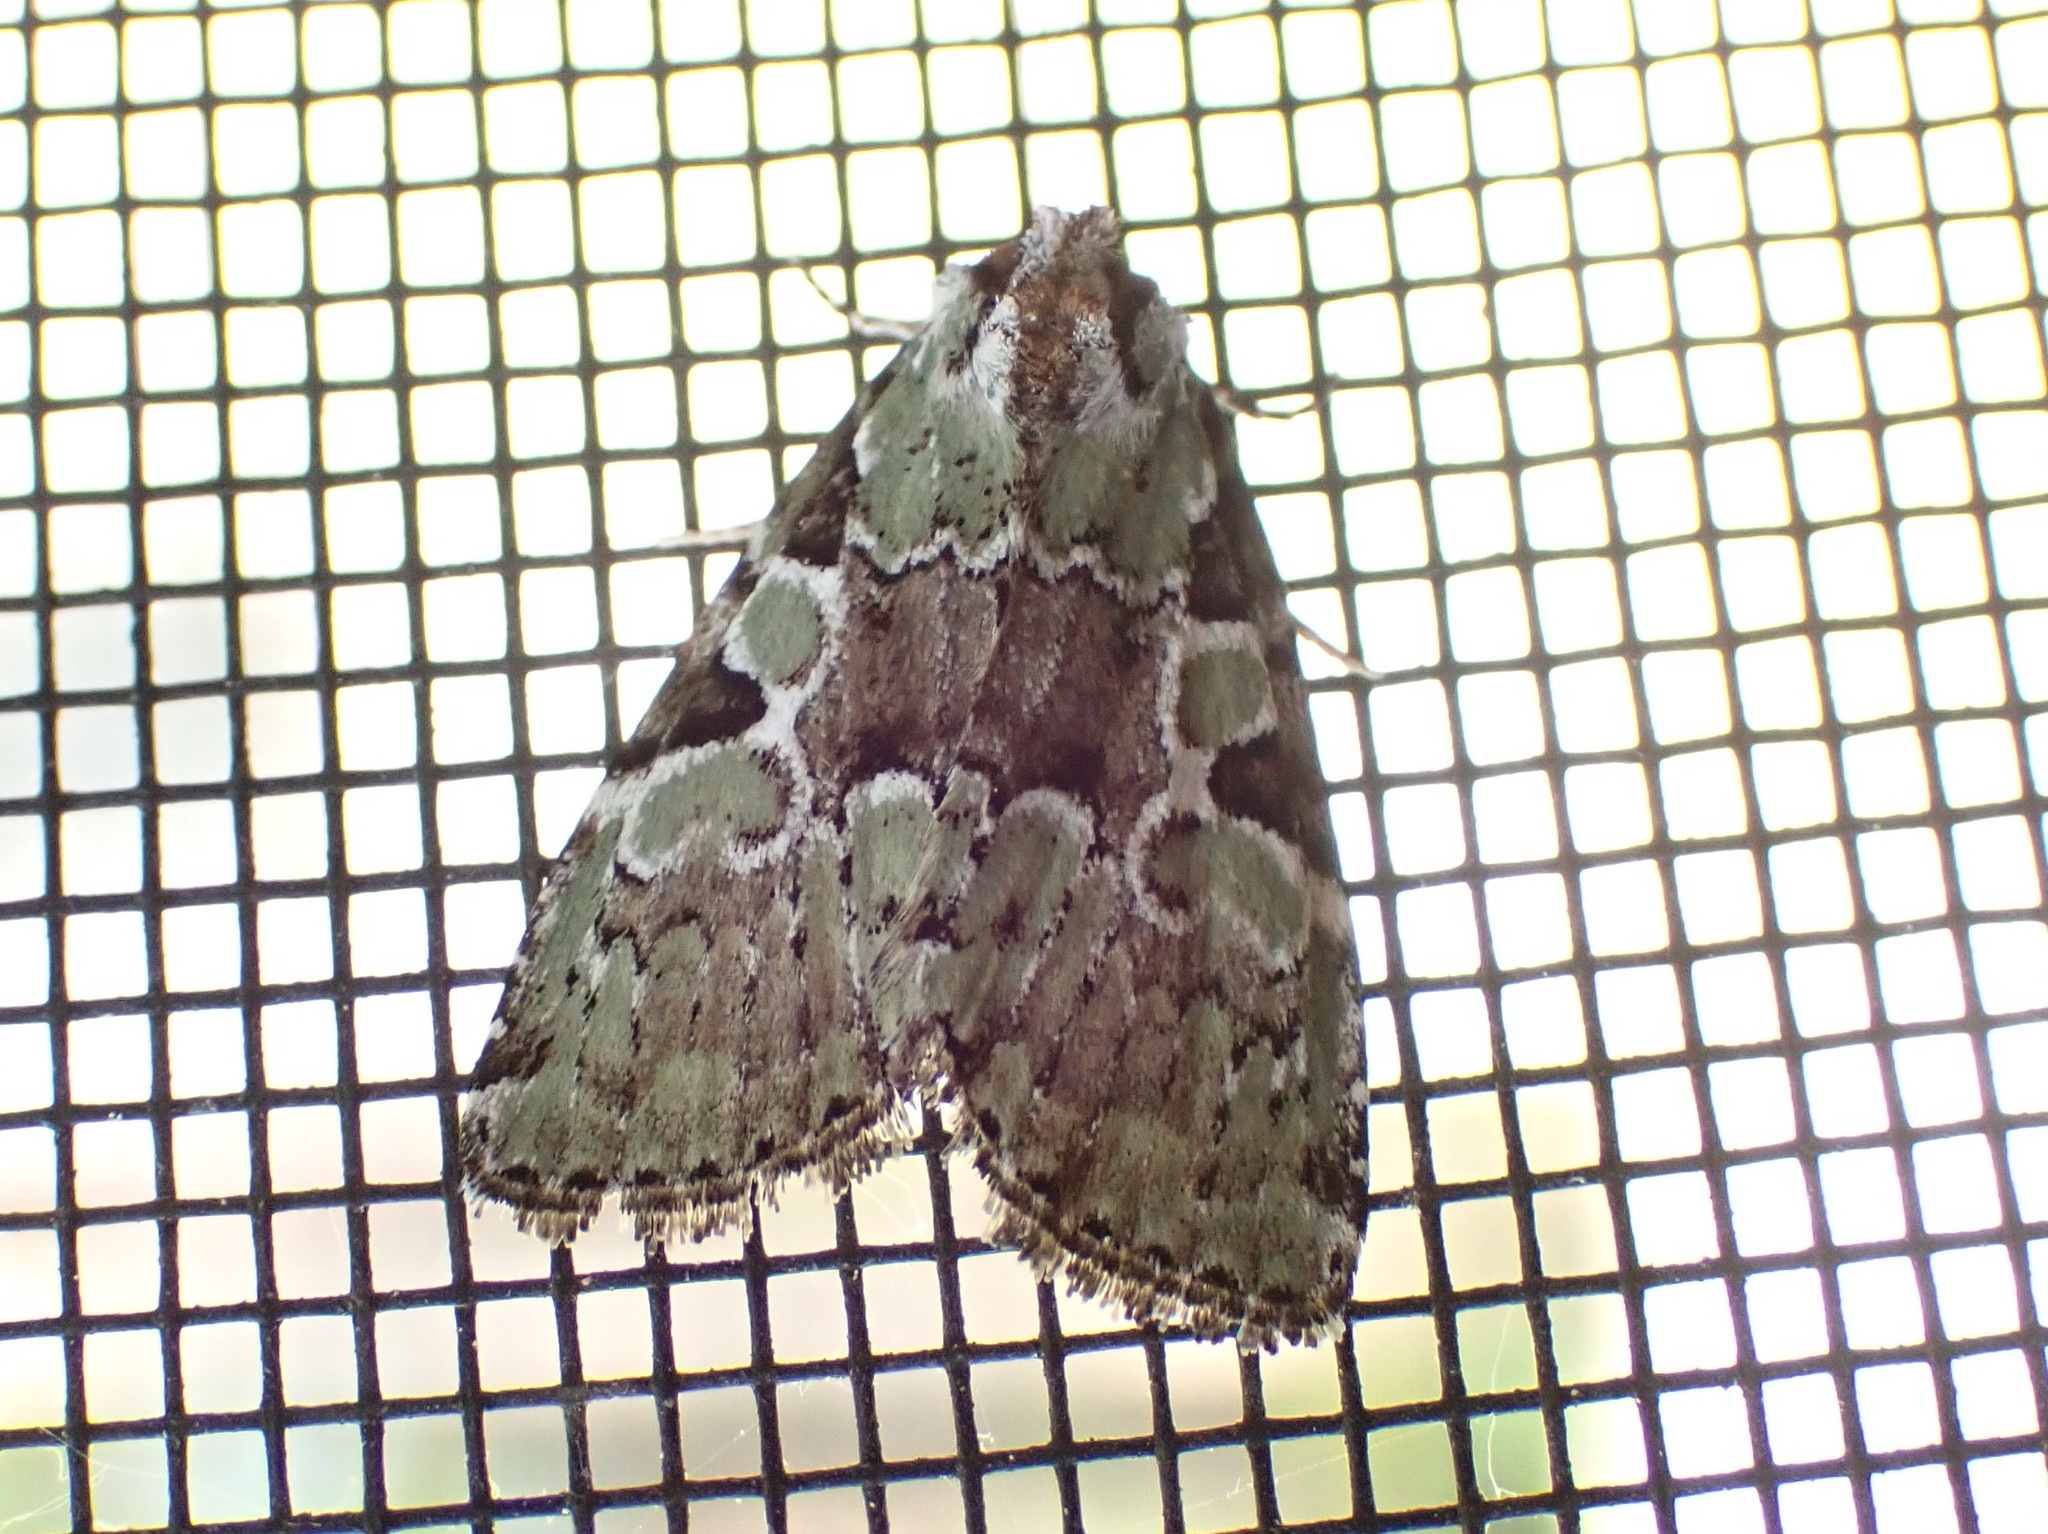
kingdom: Animalia
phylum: Arthropoda
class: Insecta
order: Lepidoptera
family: Noctuidae
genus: Leuconycta
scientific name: Leuconycta lepidula
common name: Marbled-green leuconycta moth
